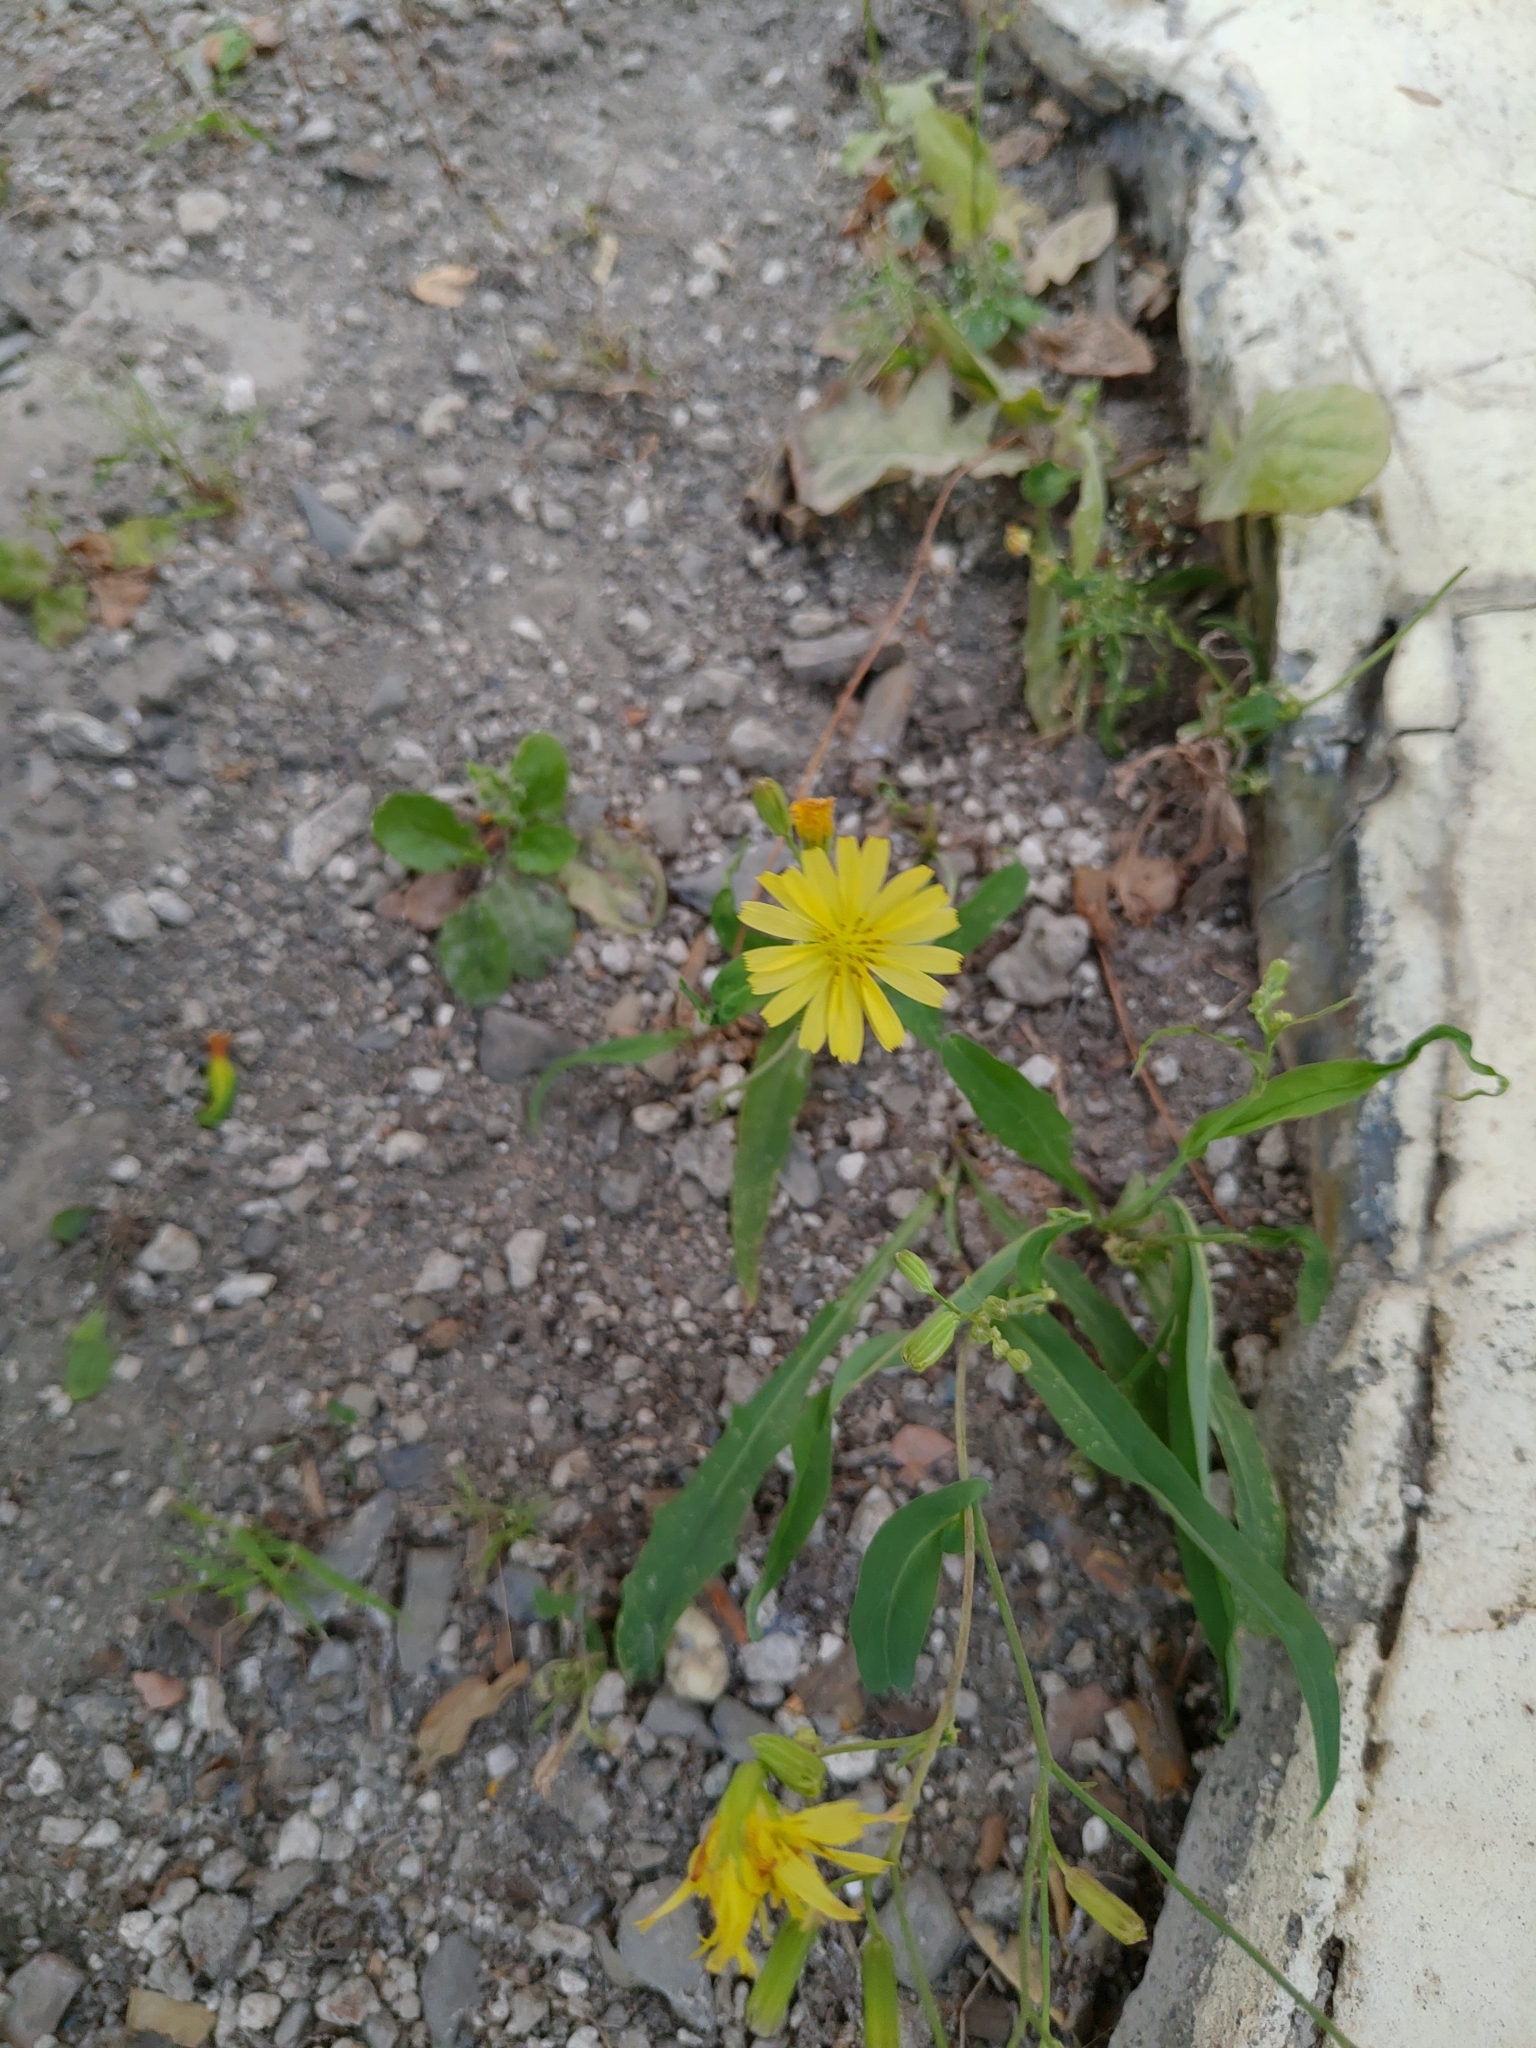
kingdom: Plantae
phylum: Tracheophyta
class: Magnoliopsida
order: Asterales
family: Asteraceae
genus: Ixeris
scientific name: Ixeris chinensis
